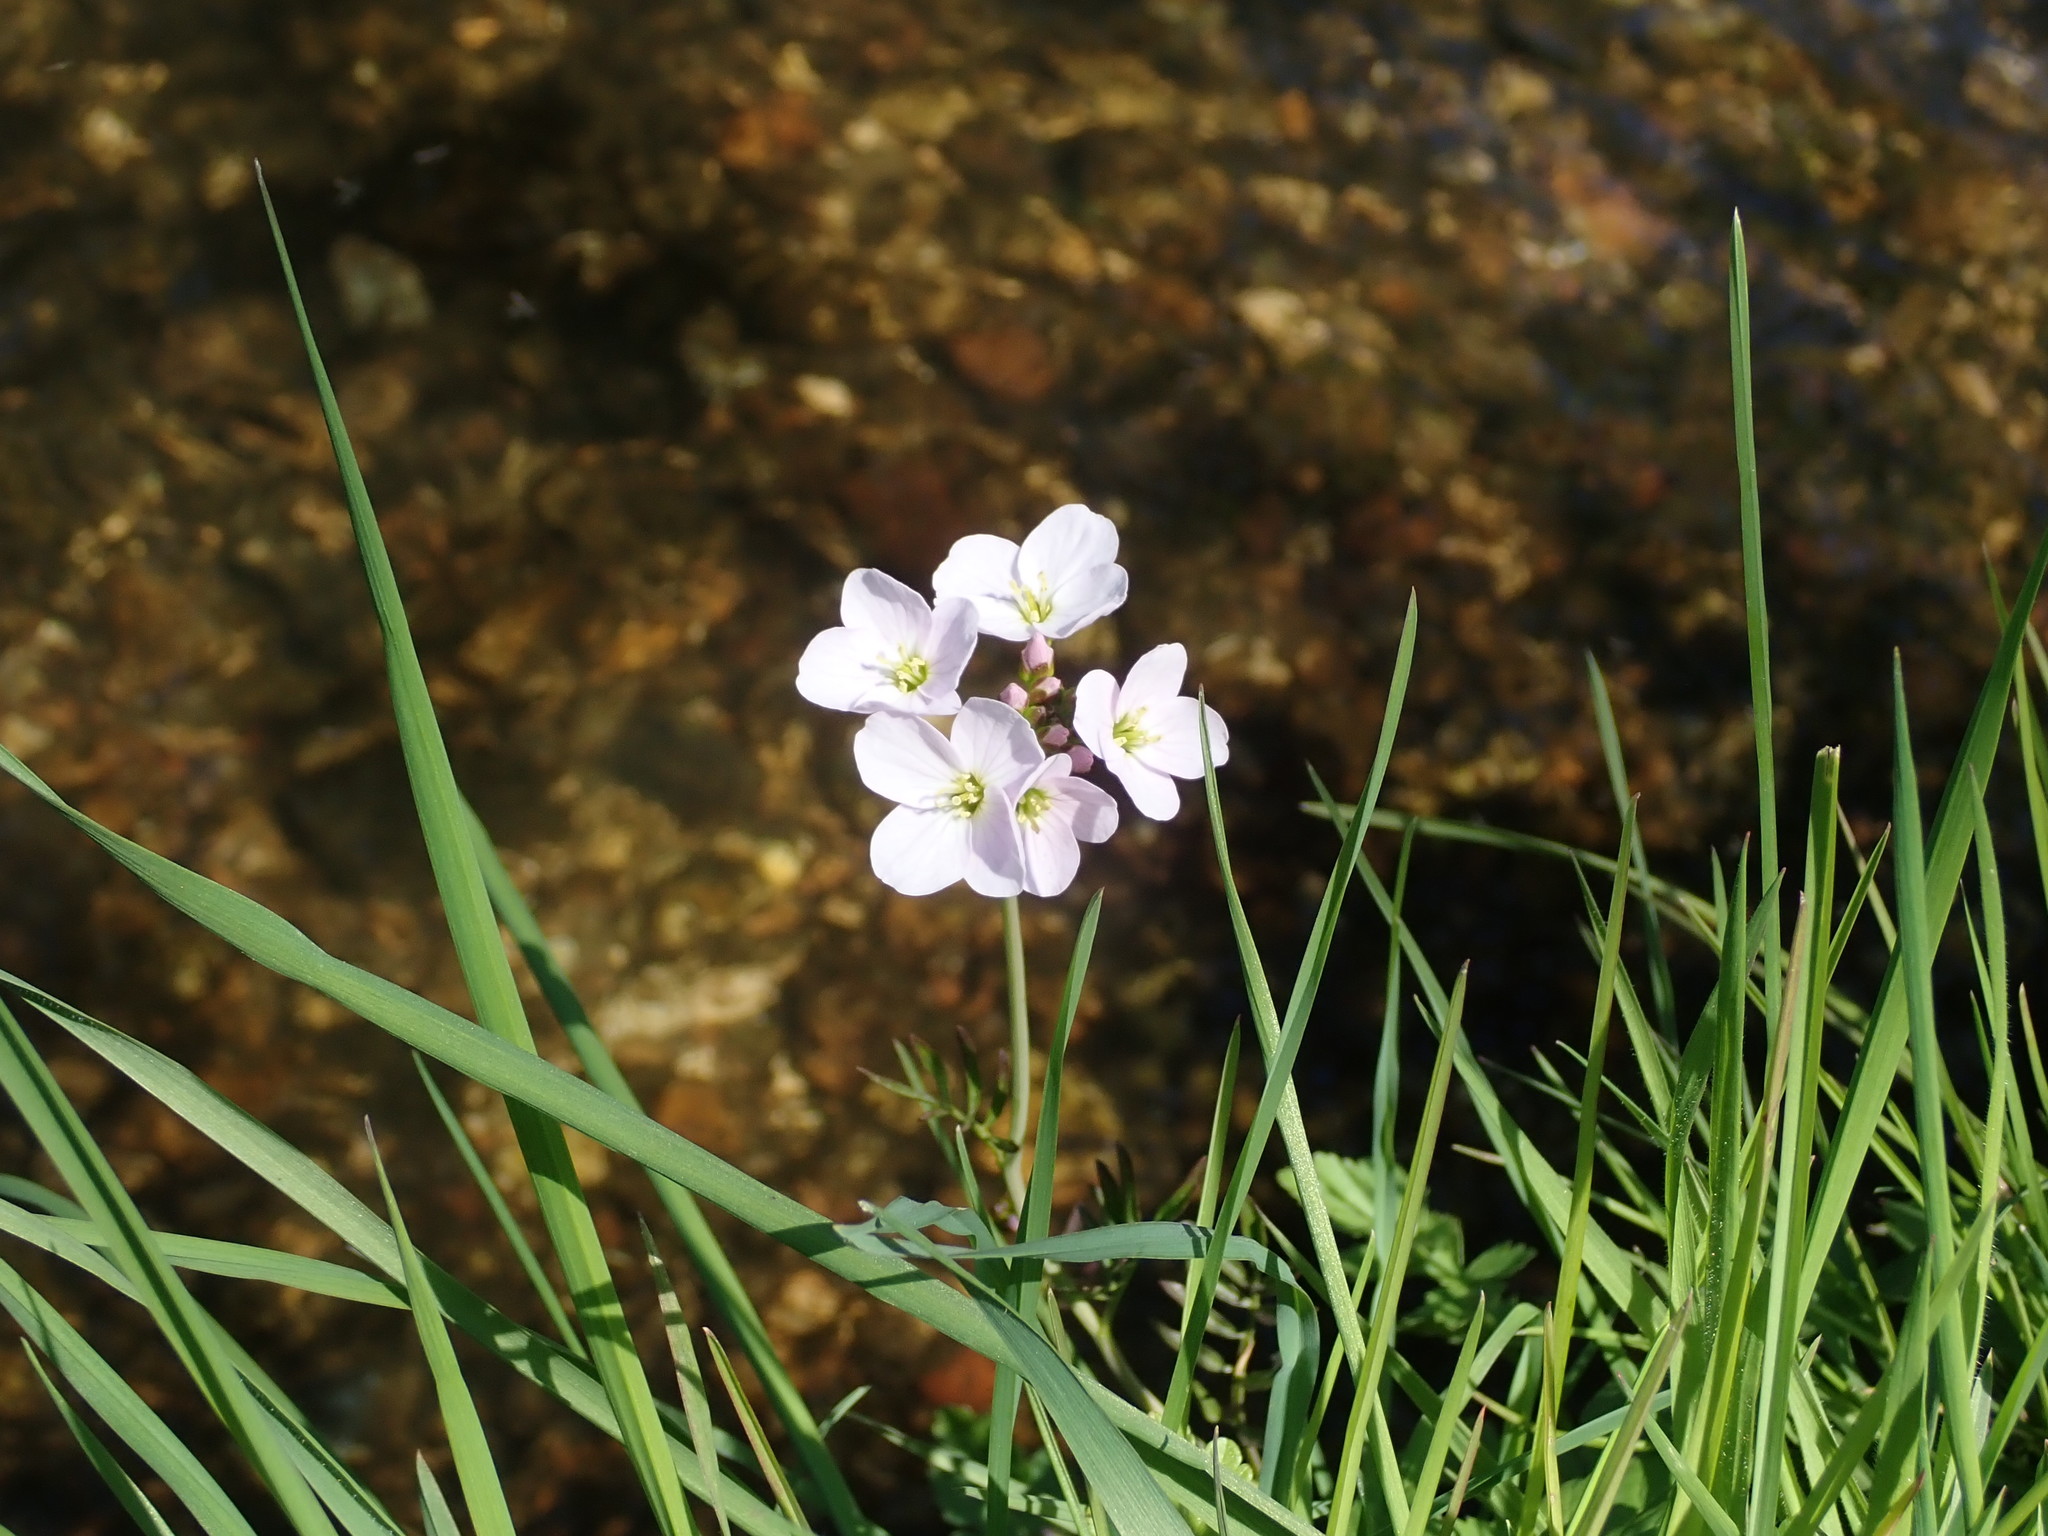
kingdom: Plantae
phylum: Tracheophyta
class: Magnoliopsida
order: Brassicales
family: Brassicaceae
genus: Cardamine
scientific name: Cardamine pratensis
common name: Cuckoo flower
